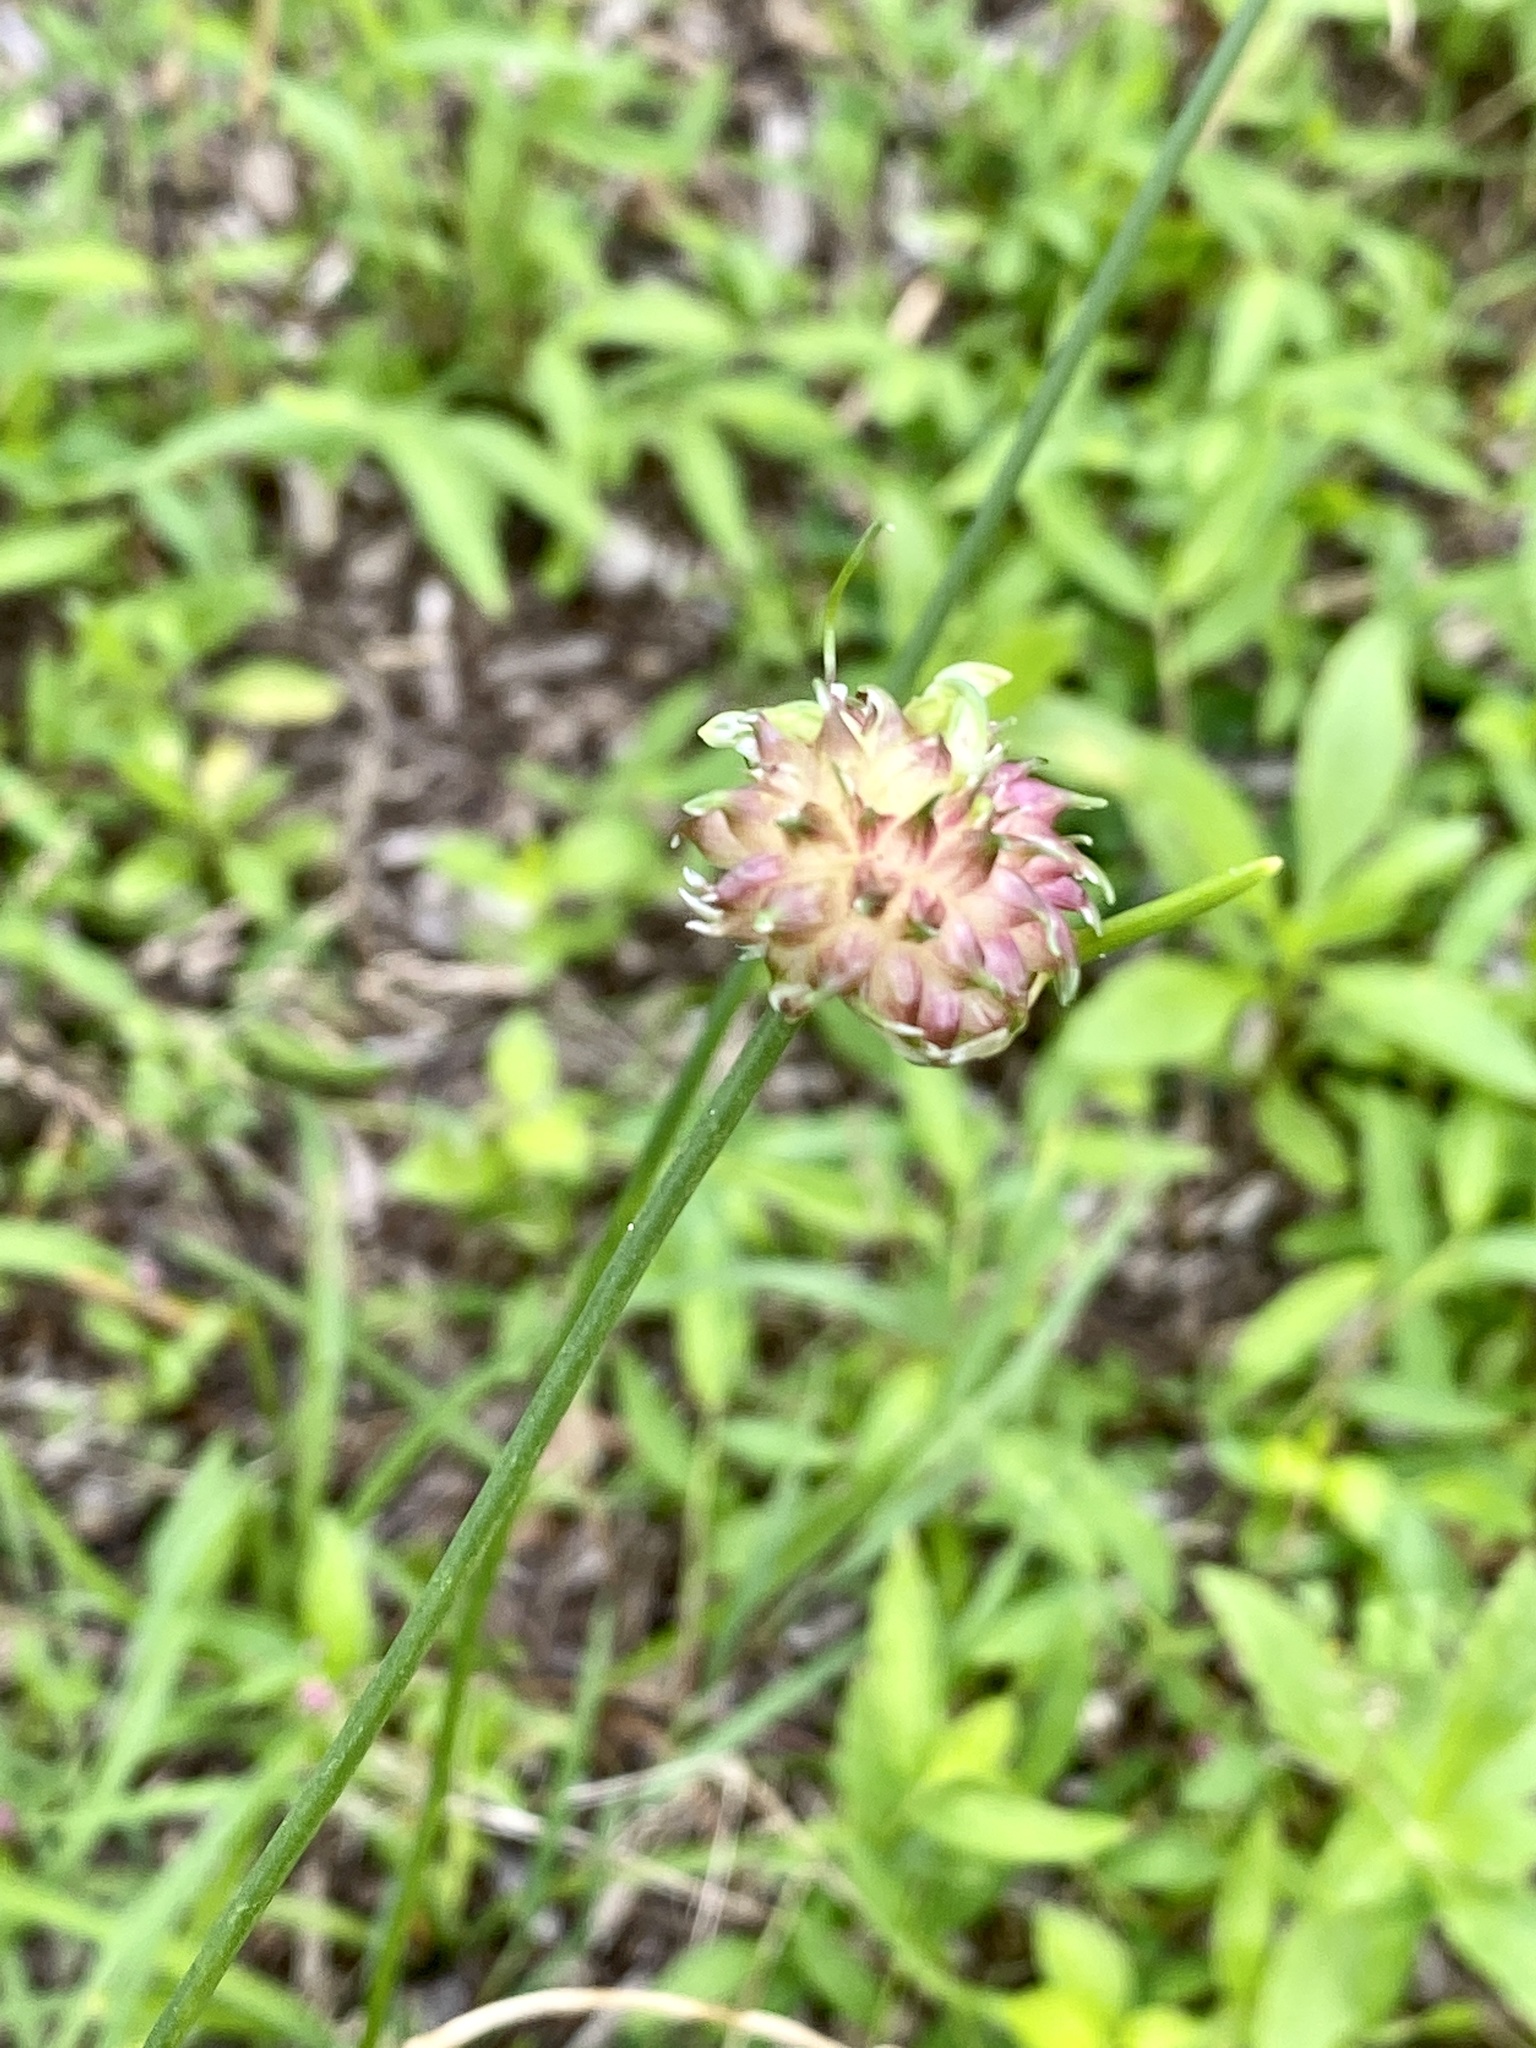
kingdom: Plantae
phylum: Tracheophyta
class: Liliopsida
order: Asparagales
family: Amaryllidaceae
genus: Allium
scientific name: Allium vineale
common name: Crow garlic
